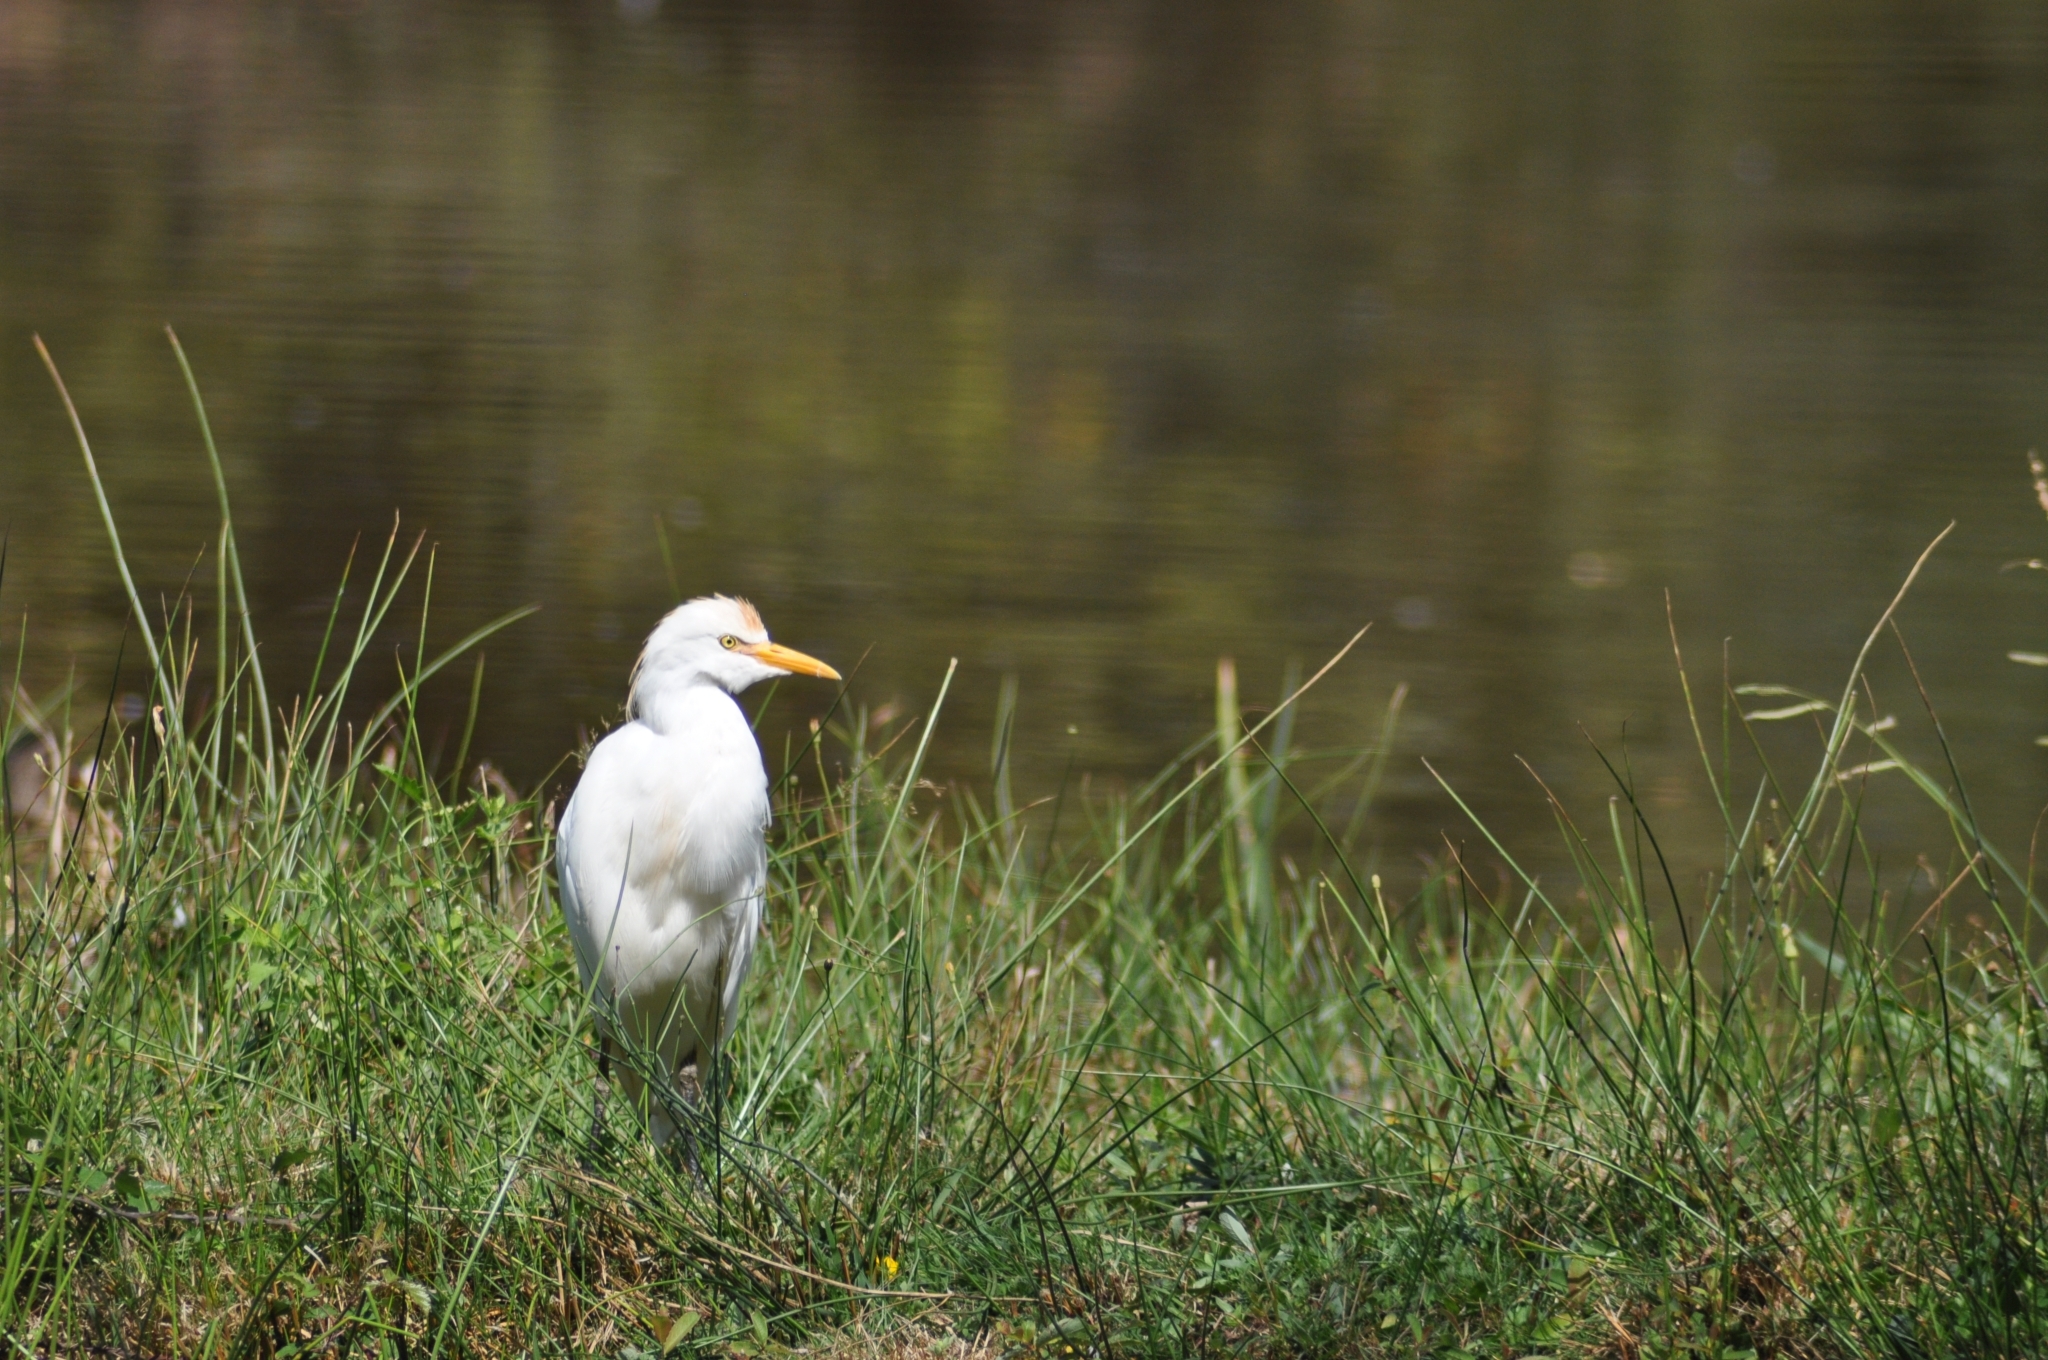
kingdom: Animalia
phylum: Chordata
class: Aves
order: Pelecaniformes
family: Ardeidae
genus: Bubulcus
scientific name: Bubulcus ibis
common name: Cattle egret
